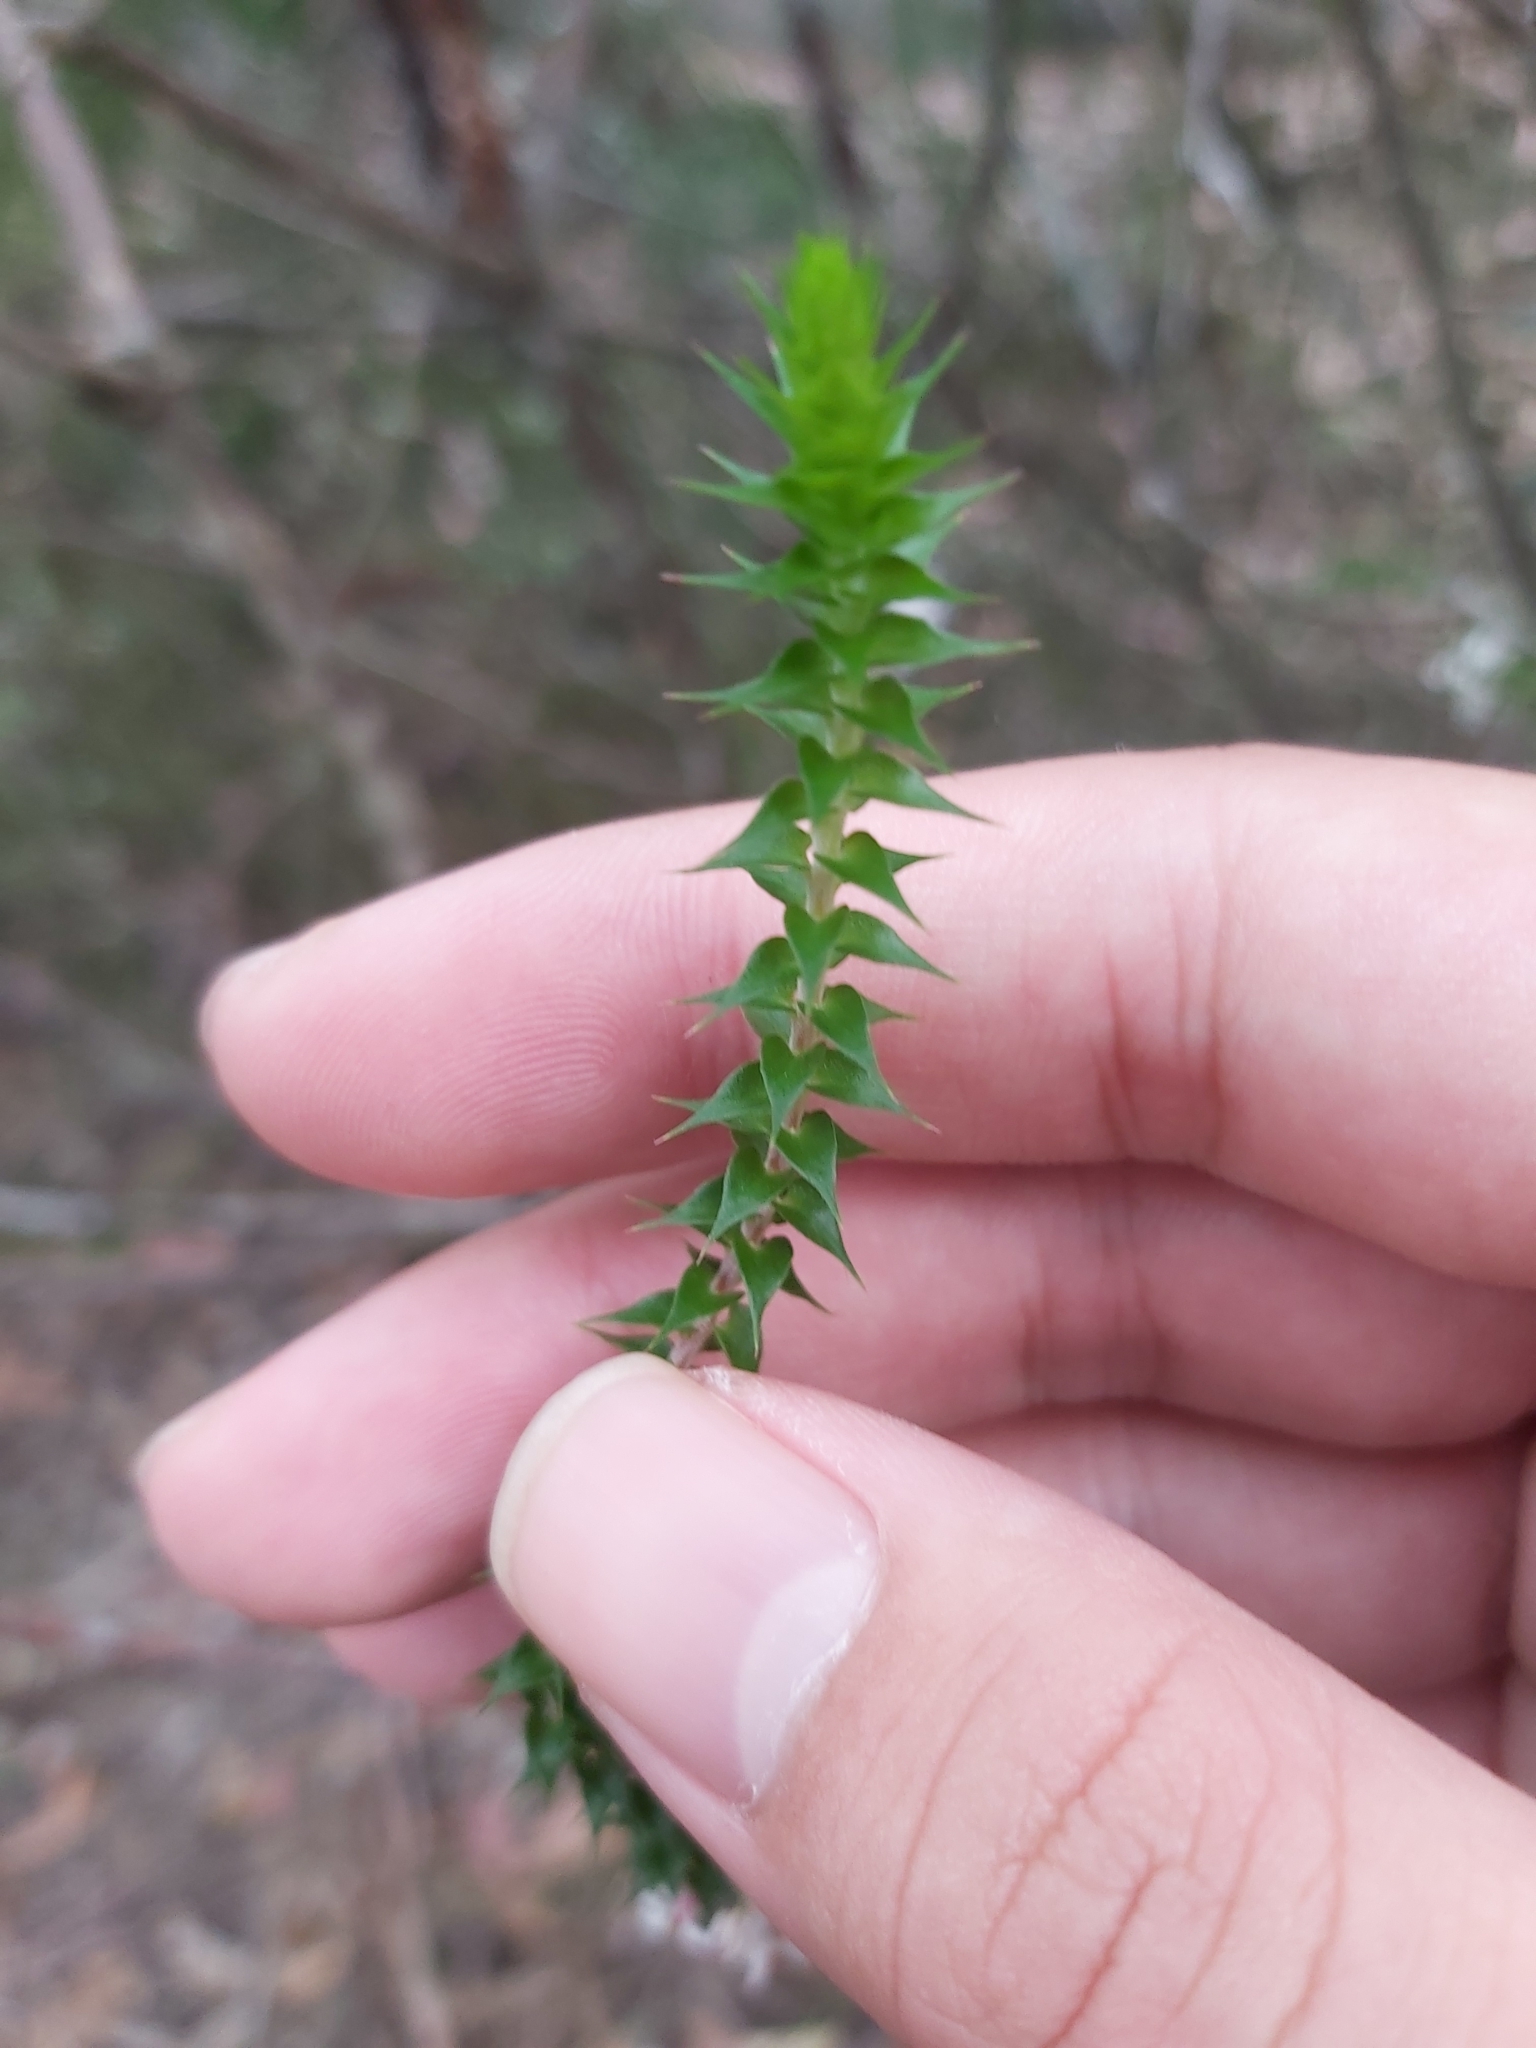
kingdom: Plantae
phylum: Tracheophyta
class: Magnoliopsida
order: Ericales
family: Ericaceae
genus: Epacris
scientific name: Epacris pulchella
